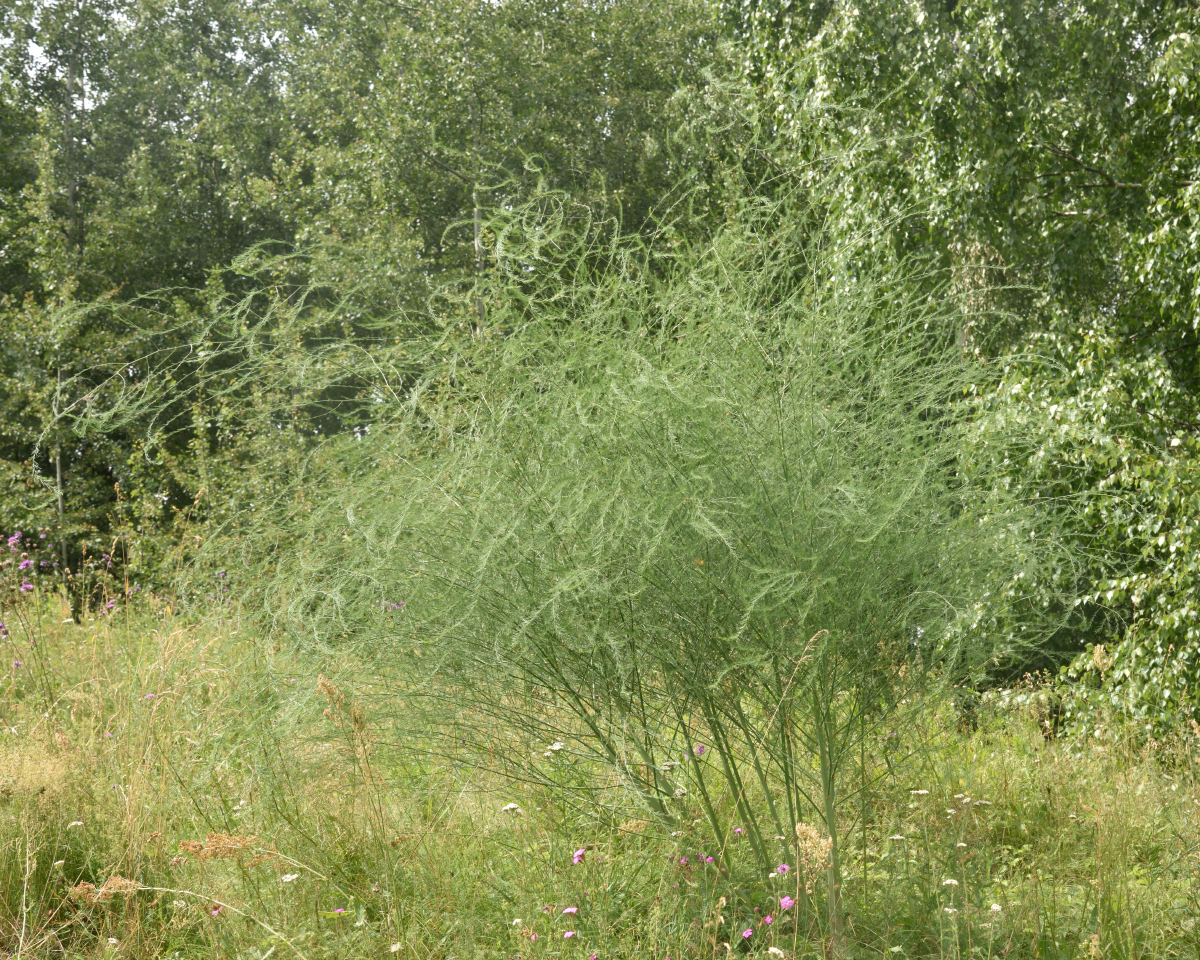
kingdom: Plantae
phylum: Tracheophyta
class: Liliopsida
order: Asparagales
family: Asparagaceae
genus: Asparagus
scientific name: Asparagus officinalis
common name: Garden asparagus
